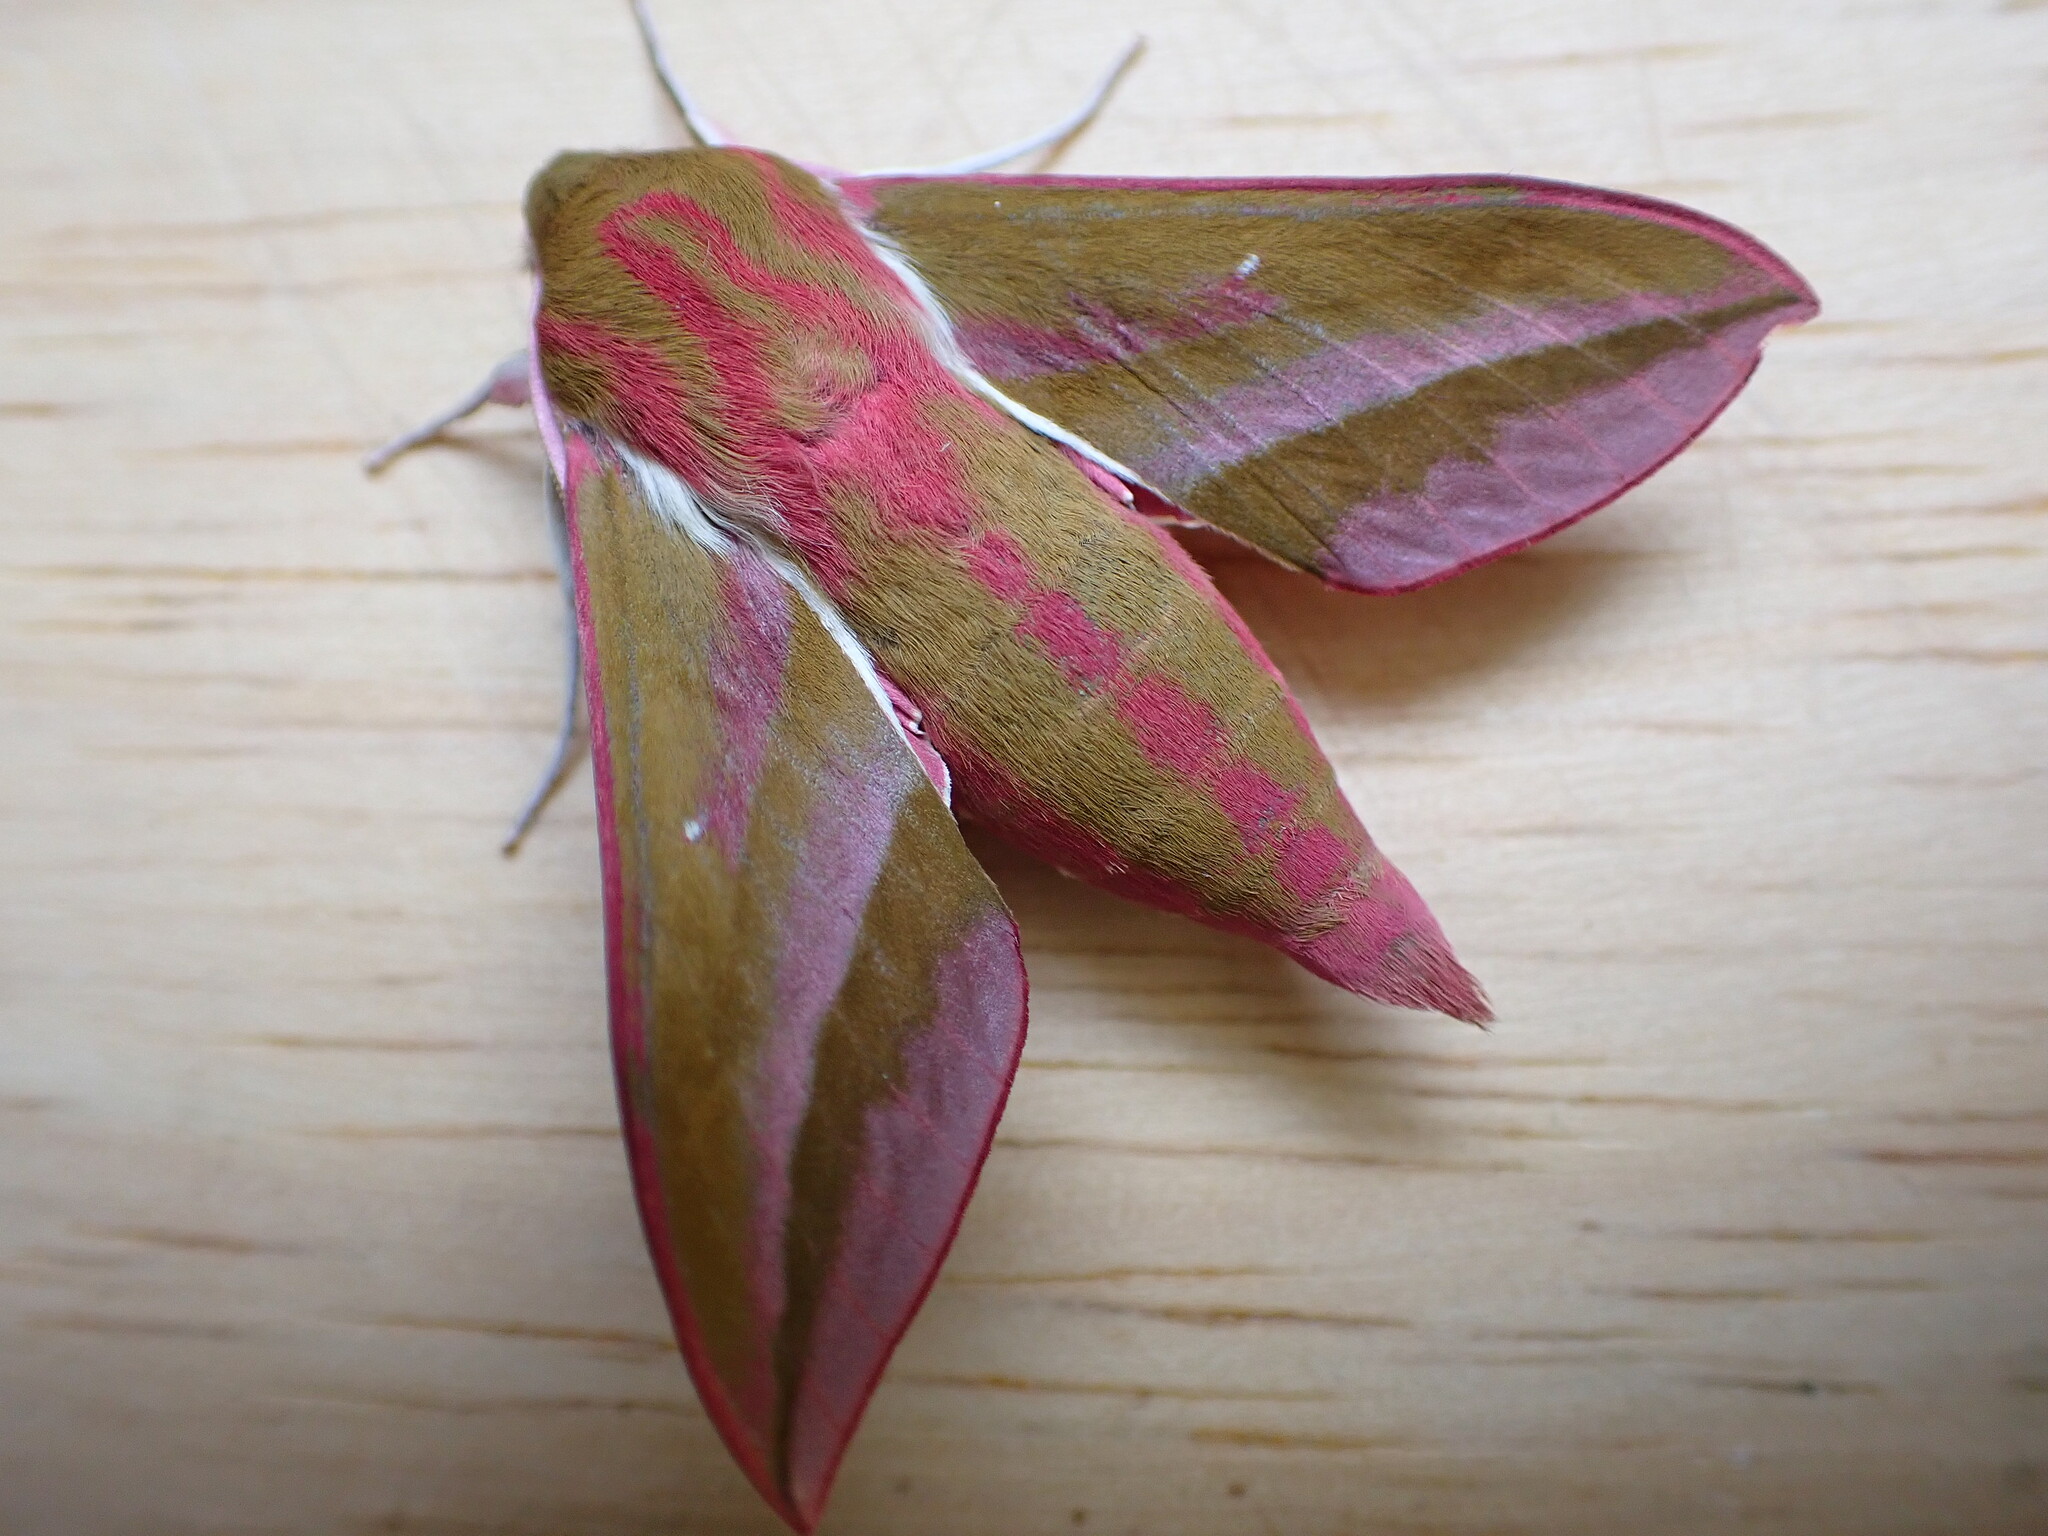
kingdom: Animalia
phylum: Arthropoda
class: Insecta
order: Lepidoptera
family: Sphingidae
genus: Deilephila
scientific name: Deilephila elpenor
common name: Elephant hawk-moth
